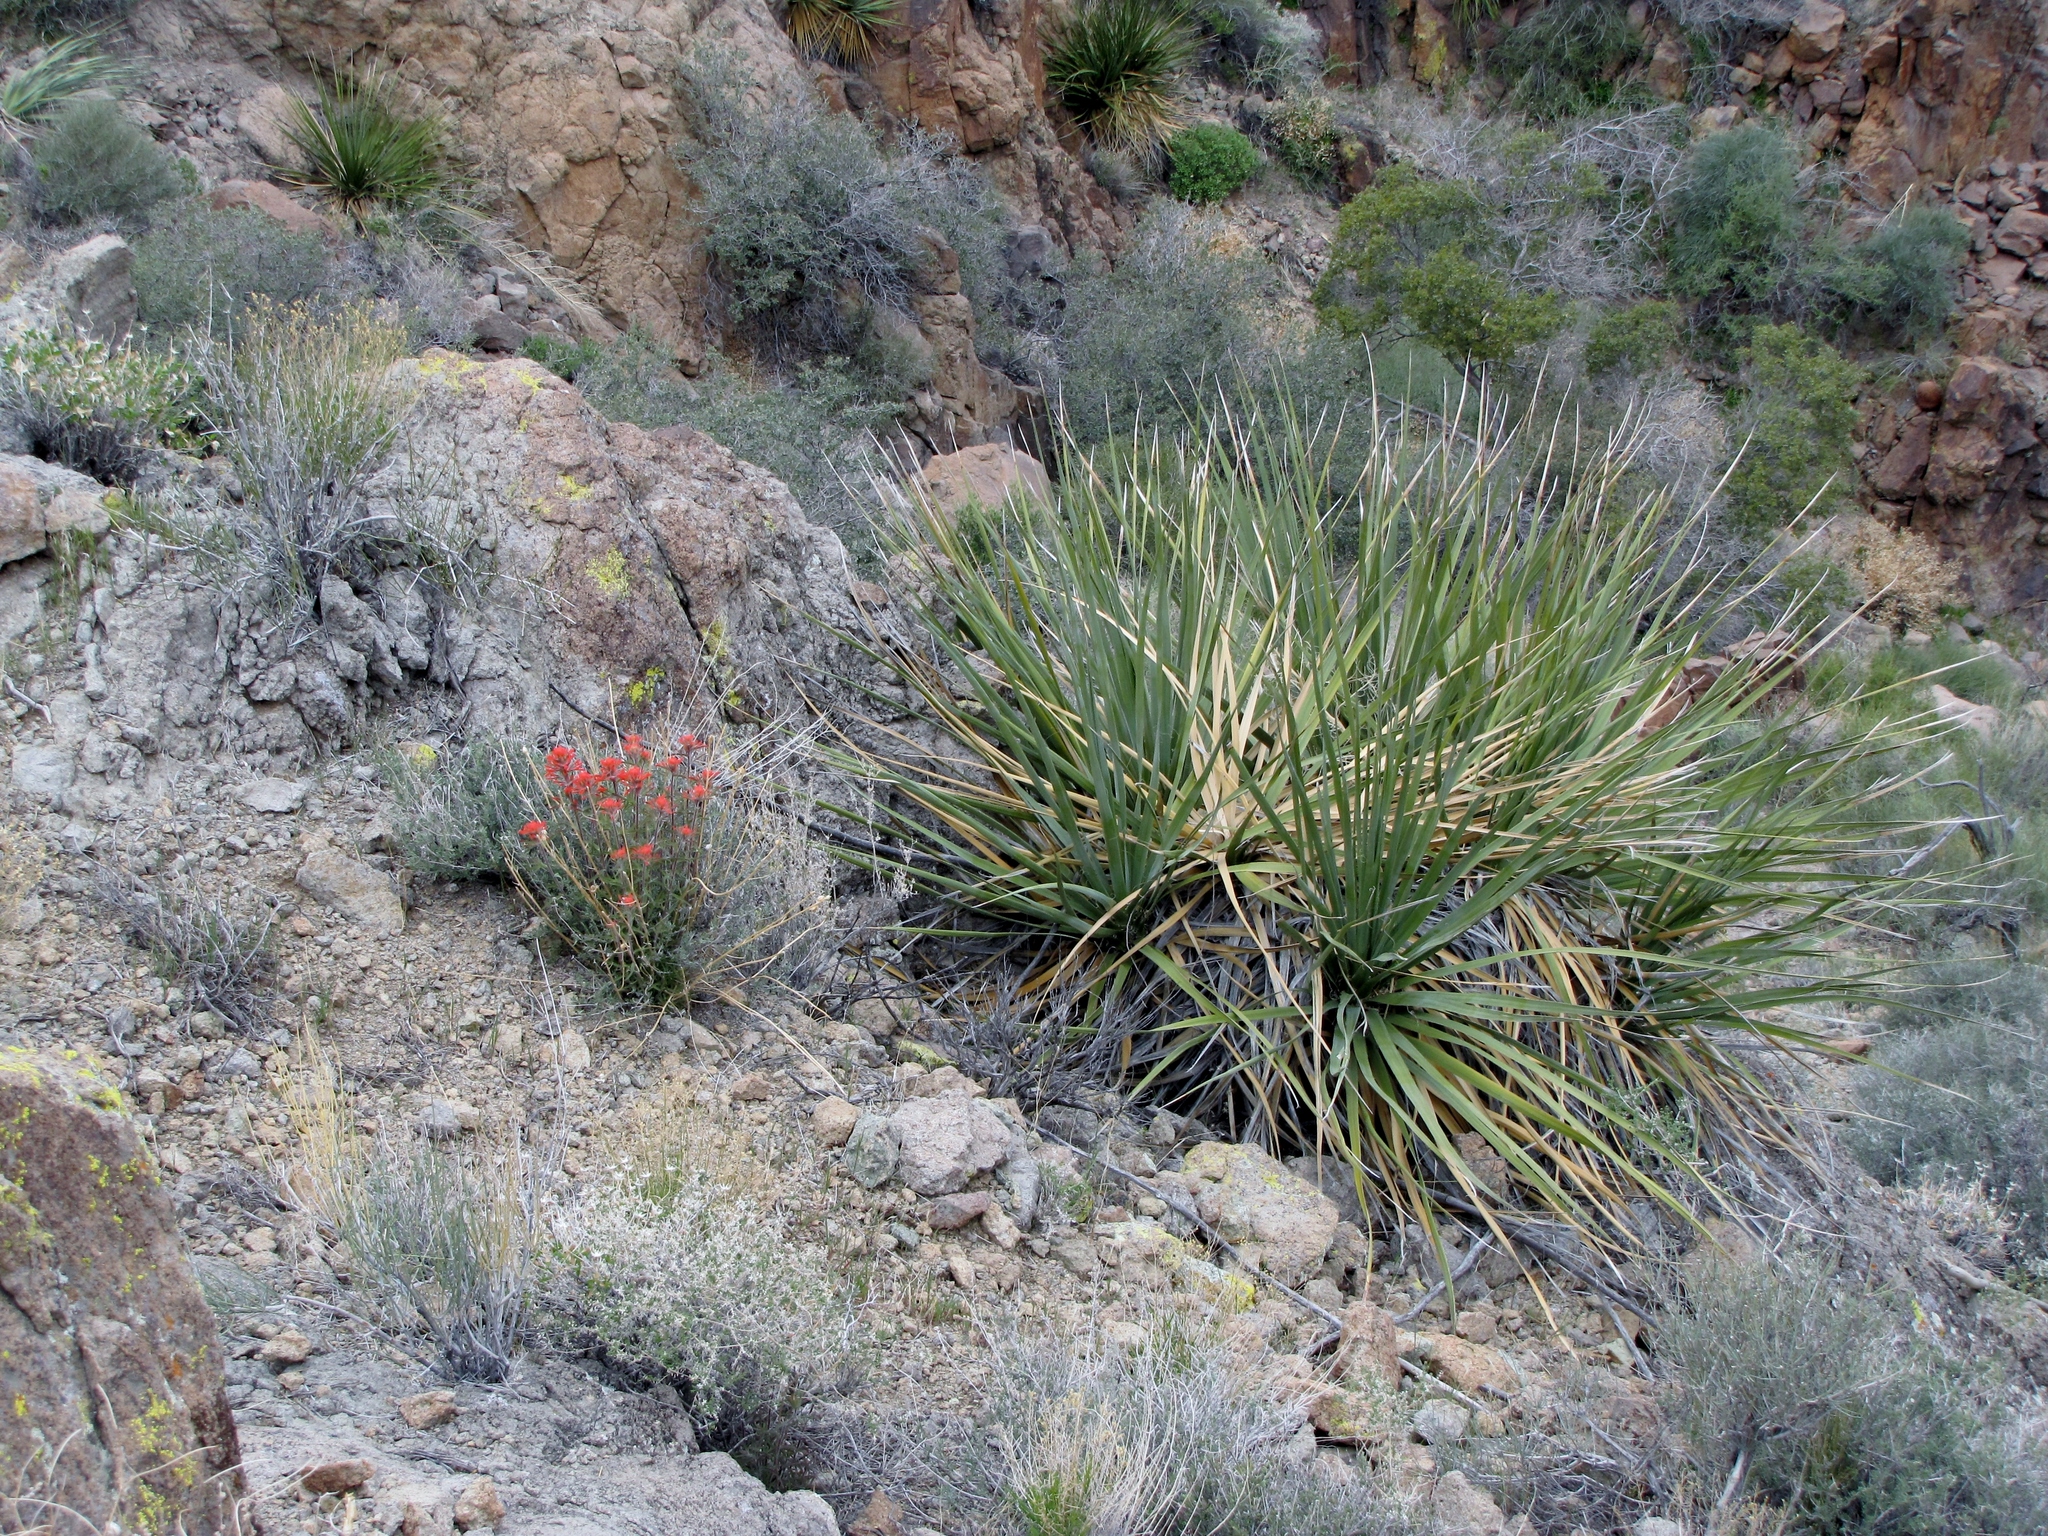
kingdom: Plantae
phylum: Tracheophyta
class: Liliopsida
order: Asparagales
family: Asparagaceae
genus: Yucca
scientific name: Yucca schidigera
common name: Mojave yucca
